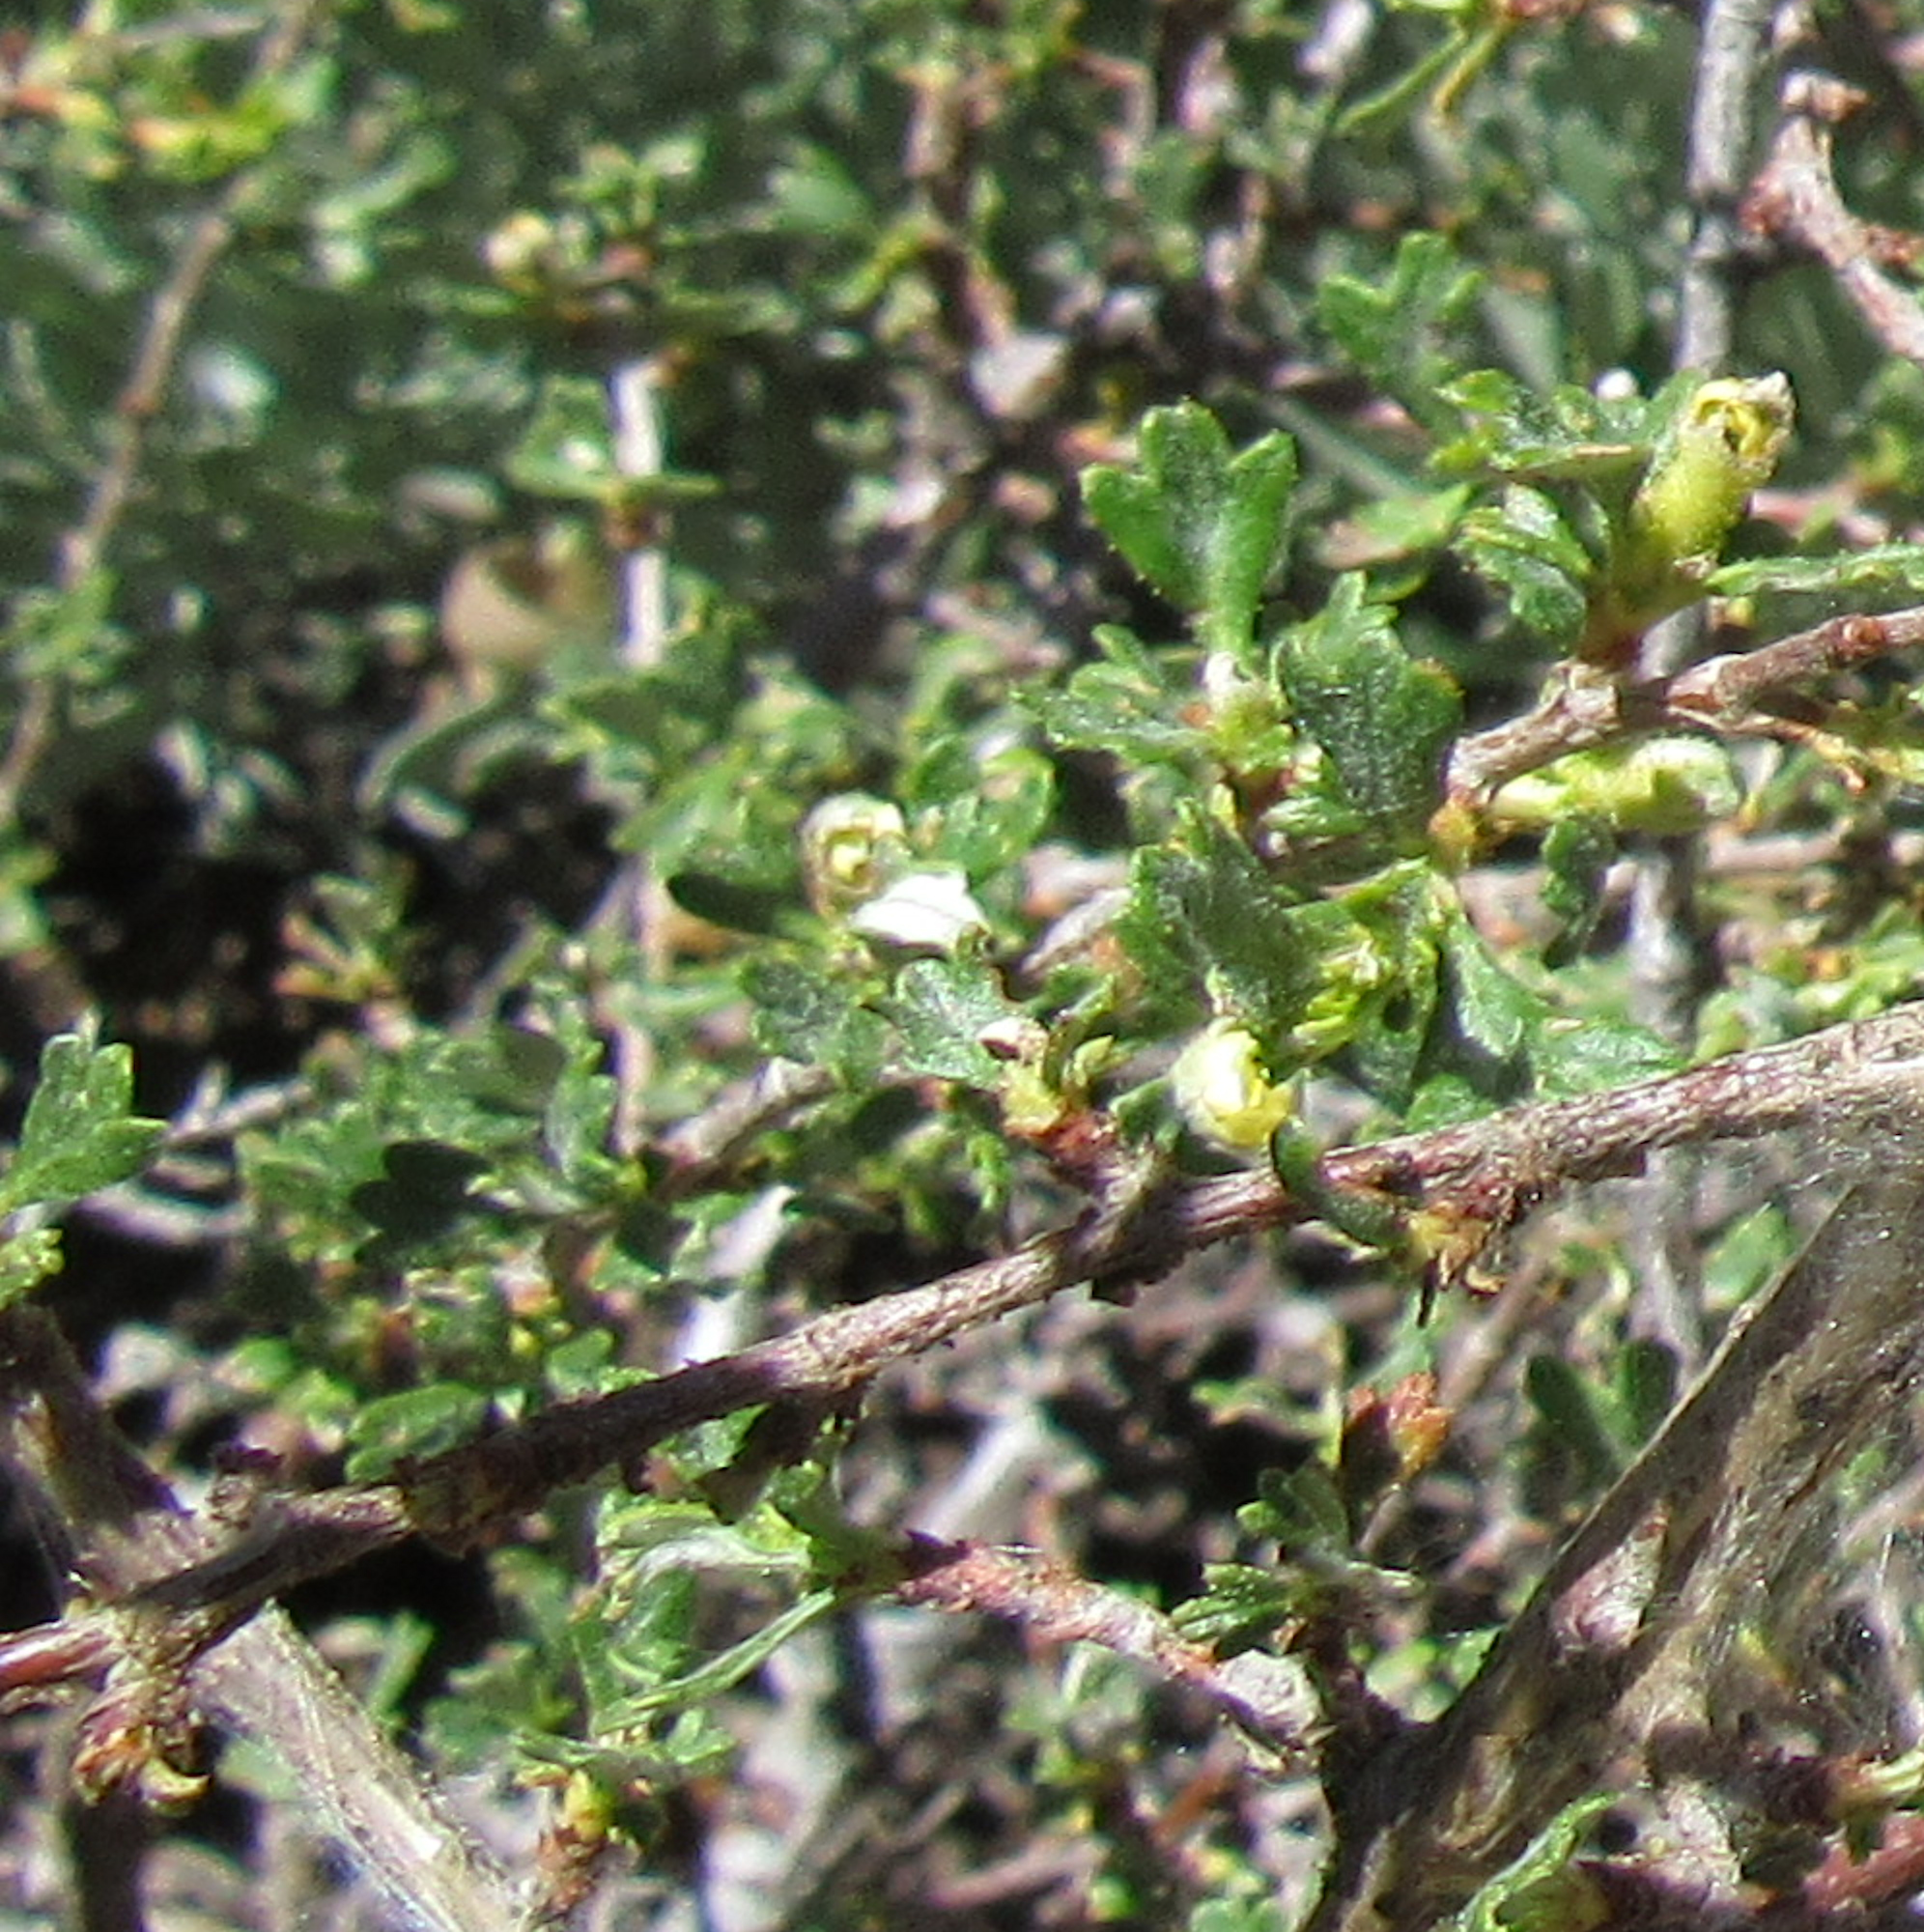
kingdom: Plantae
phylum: Tracheophyta
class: Magnoliopsida
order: Rosales
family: Rosaceae
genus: Purshia
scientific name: Purshia tridentata
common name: Antelope bitterbrush
